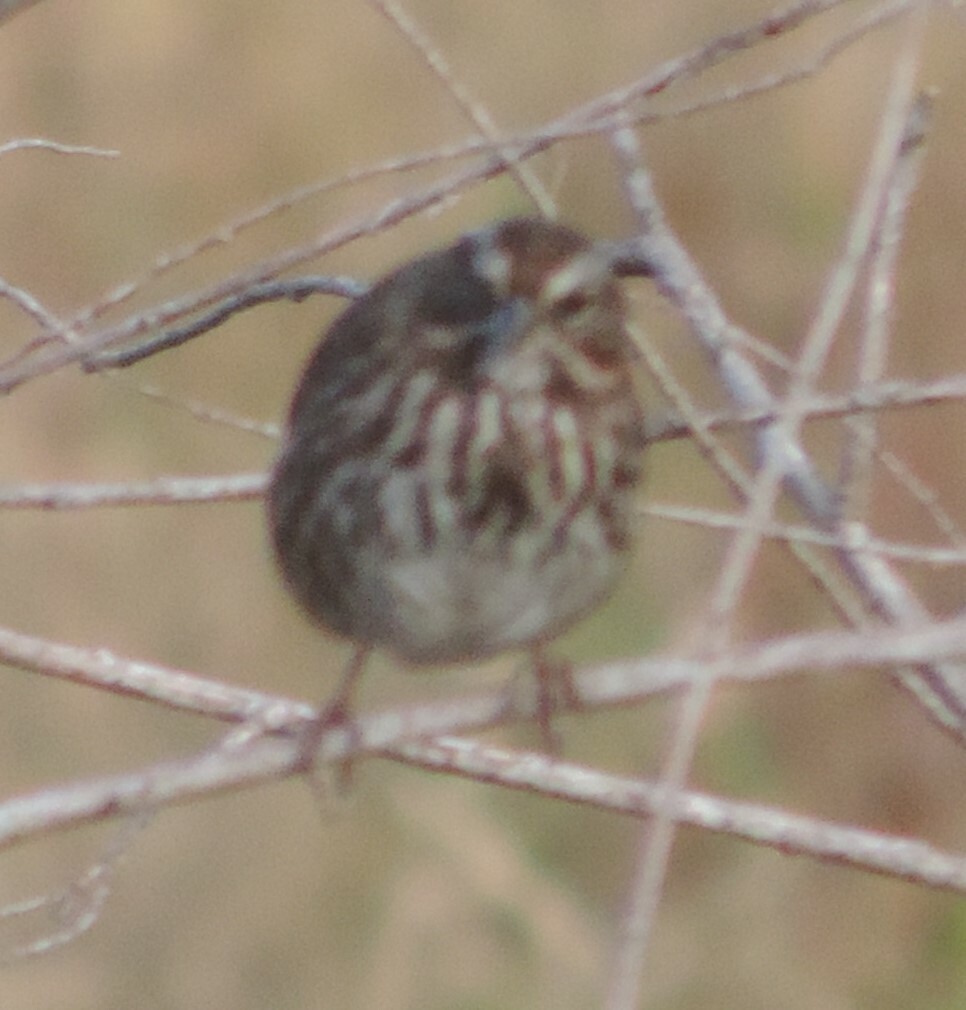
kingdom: Animalia
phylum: Chordata
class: Aves
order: Passeriformes
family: Passerellidae
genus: Melospiza
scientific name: Melospiza melodia
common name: Song sparrow
